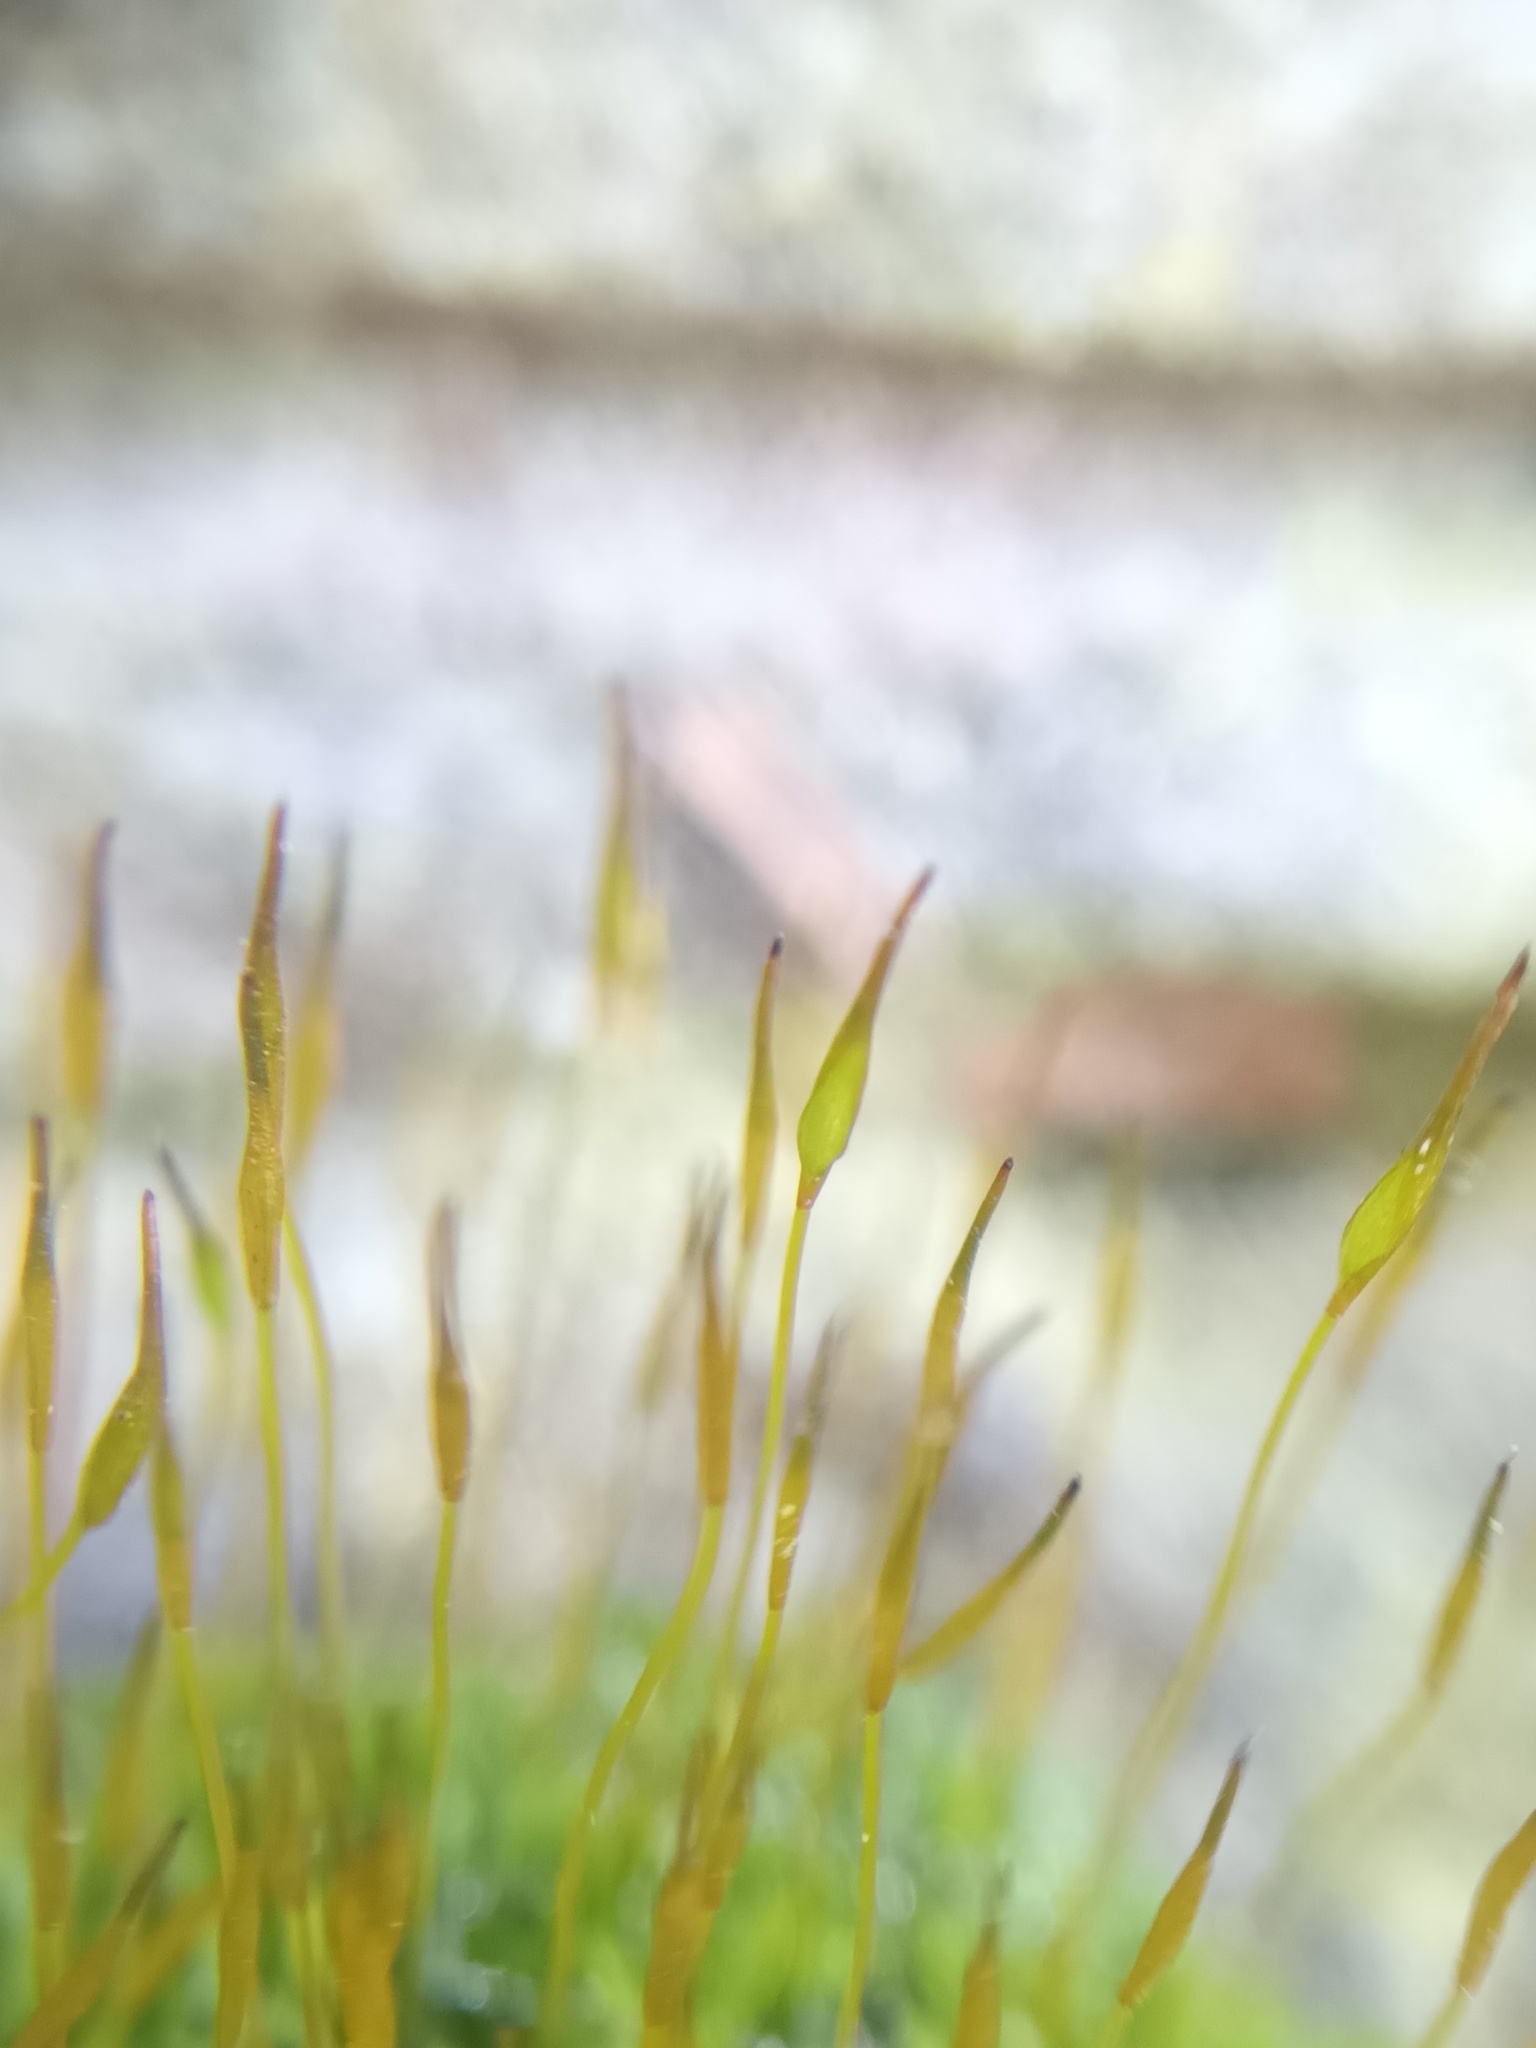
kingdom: Plantae
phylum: Bryophyta
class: Bryopsida
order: Pottiales
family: Pottiaceae
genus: Tortula
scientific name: Tortula muralis
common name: Wall screw-moss
